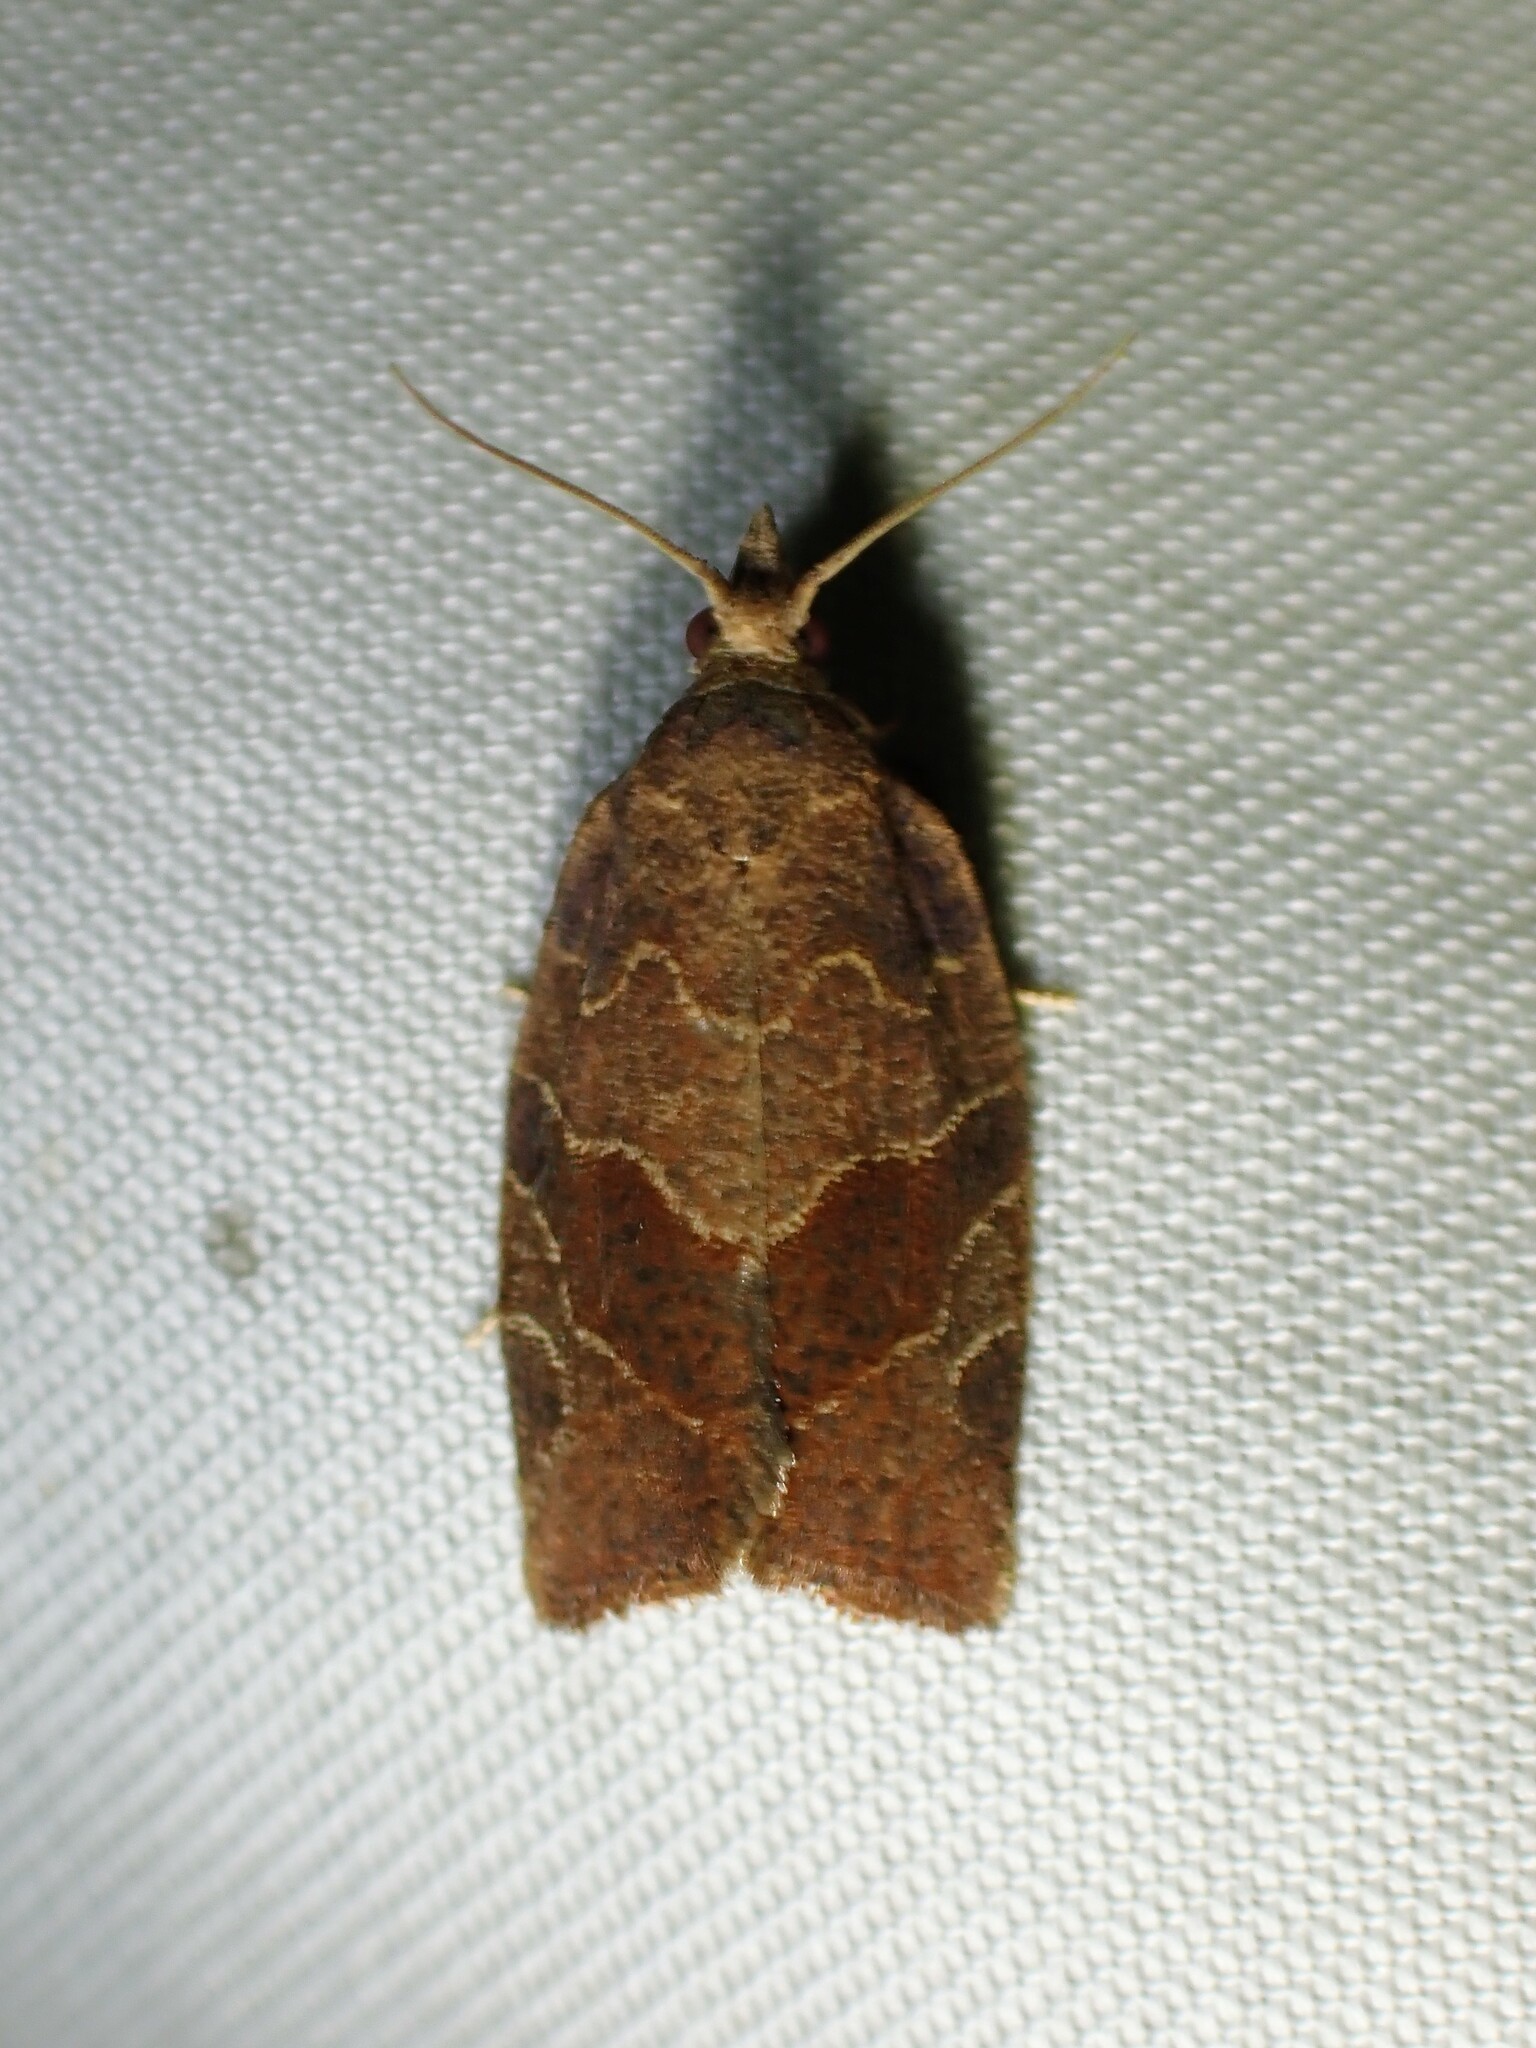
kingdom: Animalia
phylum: Arthropoda
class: Insecta
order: Lepidoptera
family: Tortricidae
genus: Pandemis
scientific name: Pandemis canadana
